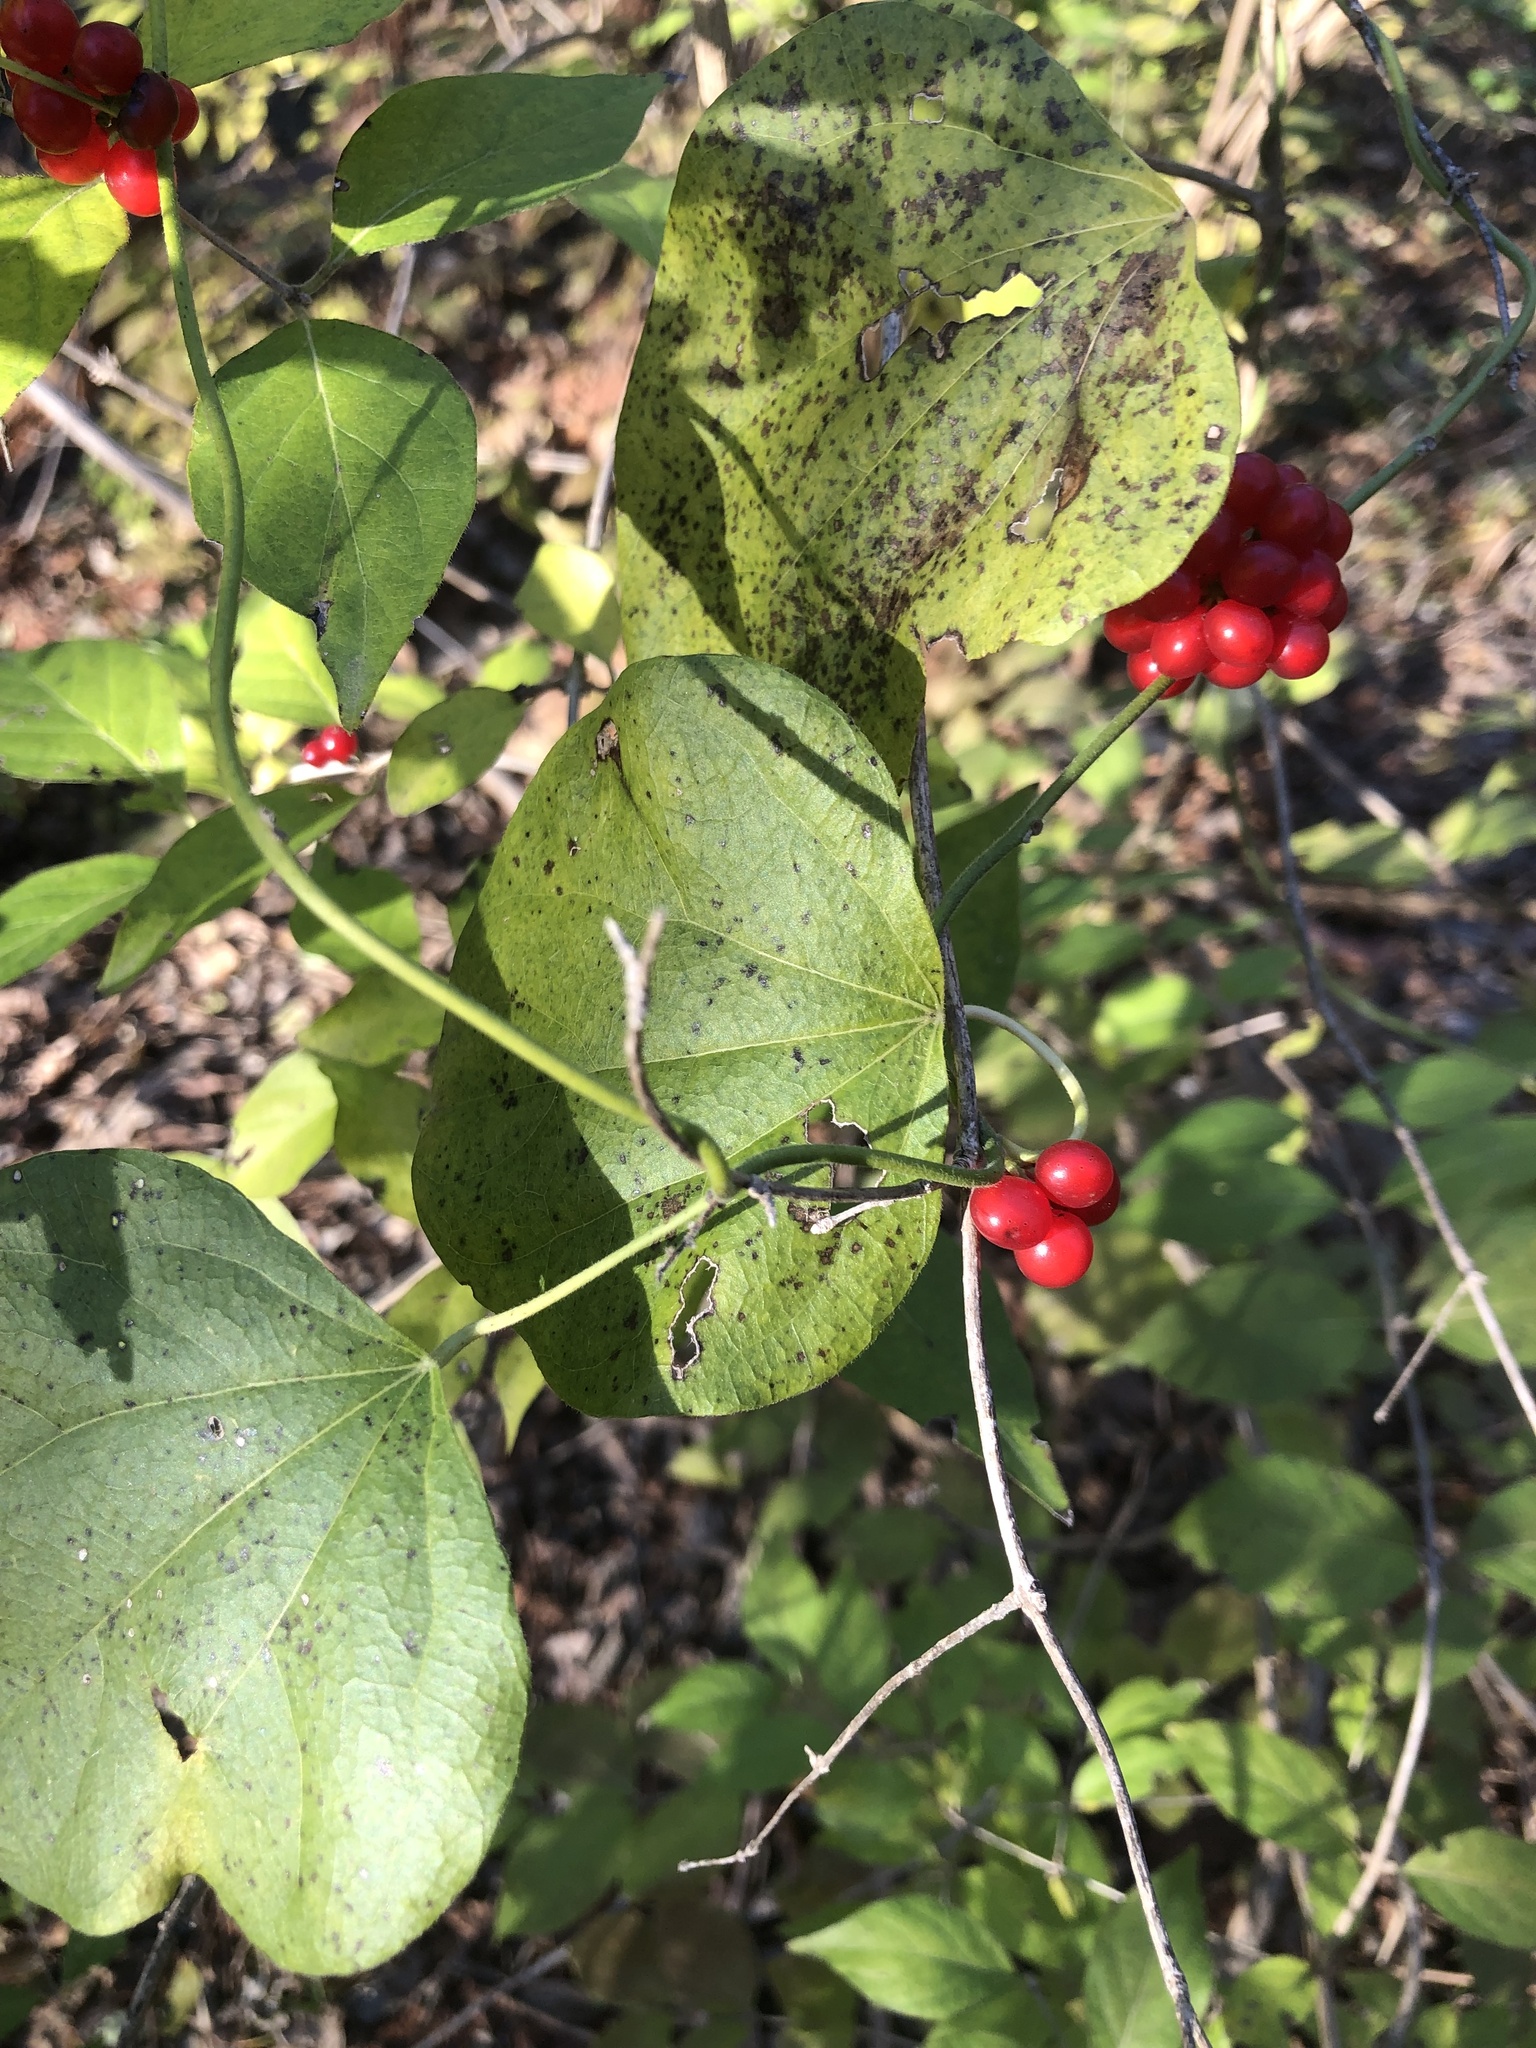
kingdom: Plantae
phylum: Tracheophyta
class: Magnoliopsida
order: Ranunculales
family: Menispermaceae
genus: Cocculus
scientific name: Cocculus carolinus
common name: Carolina moonseed
